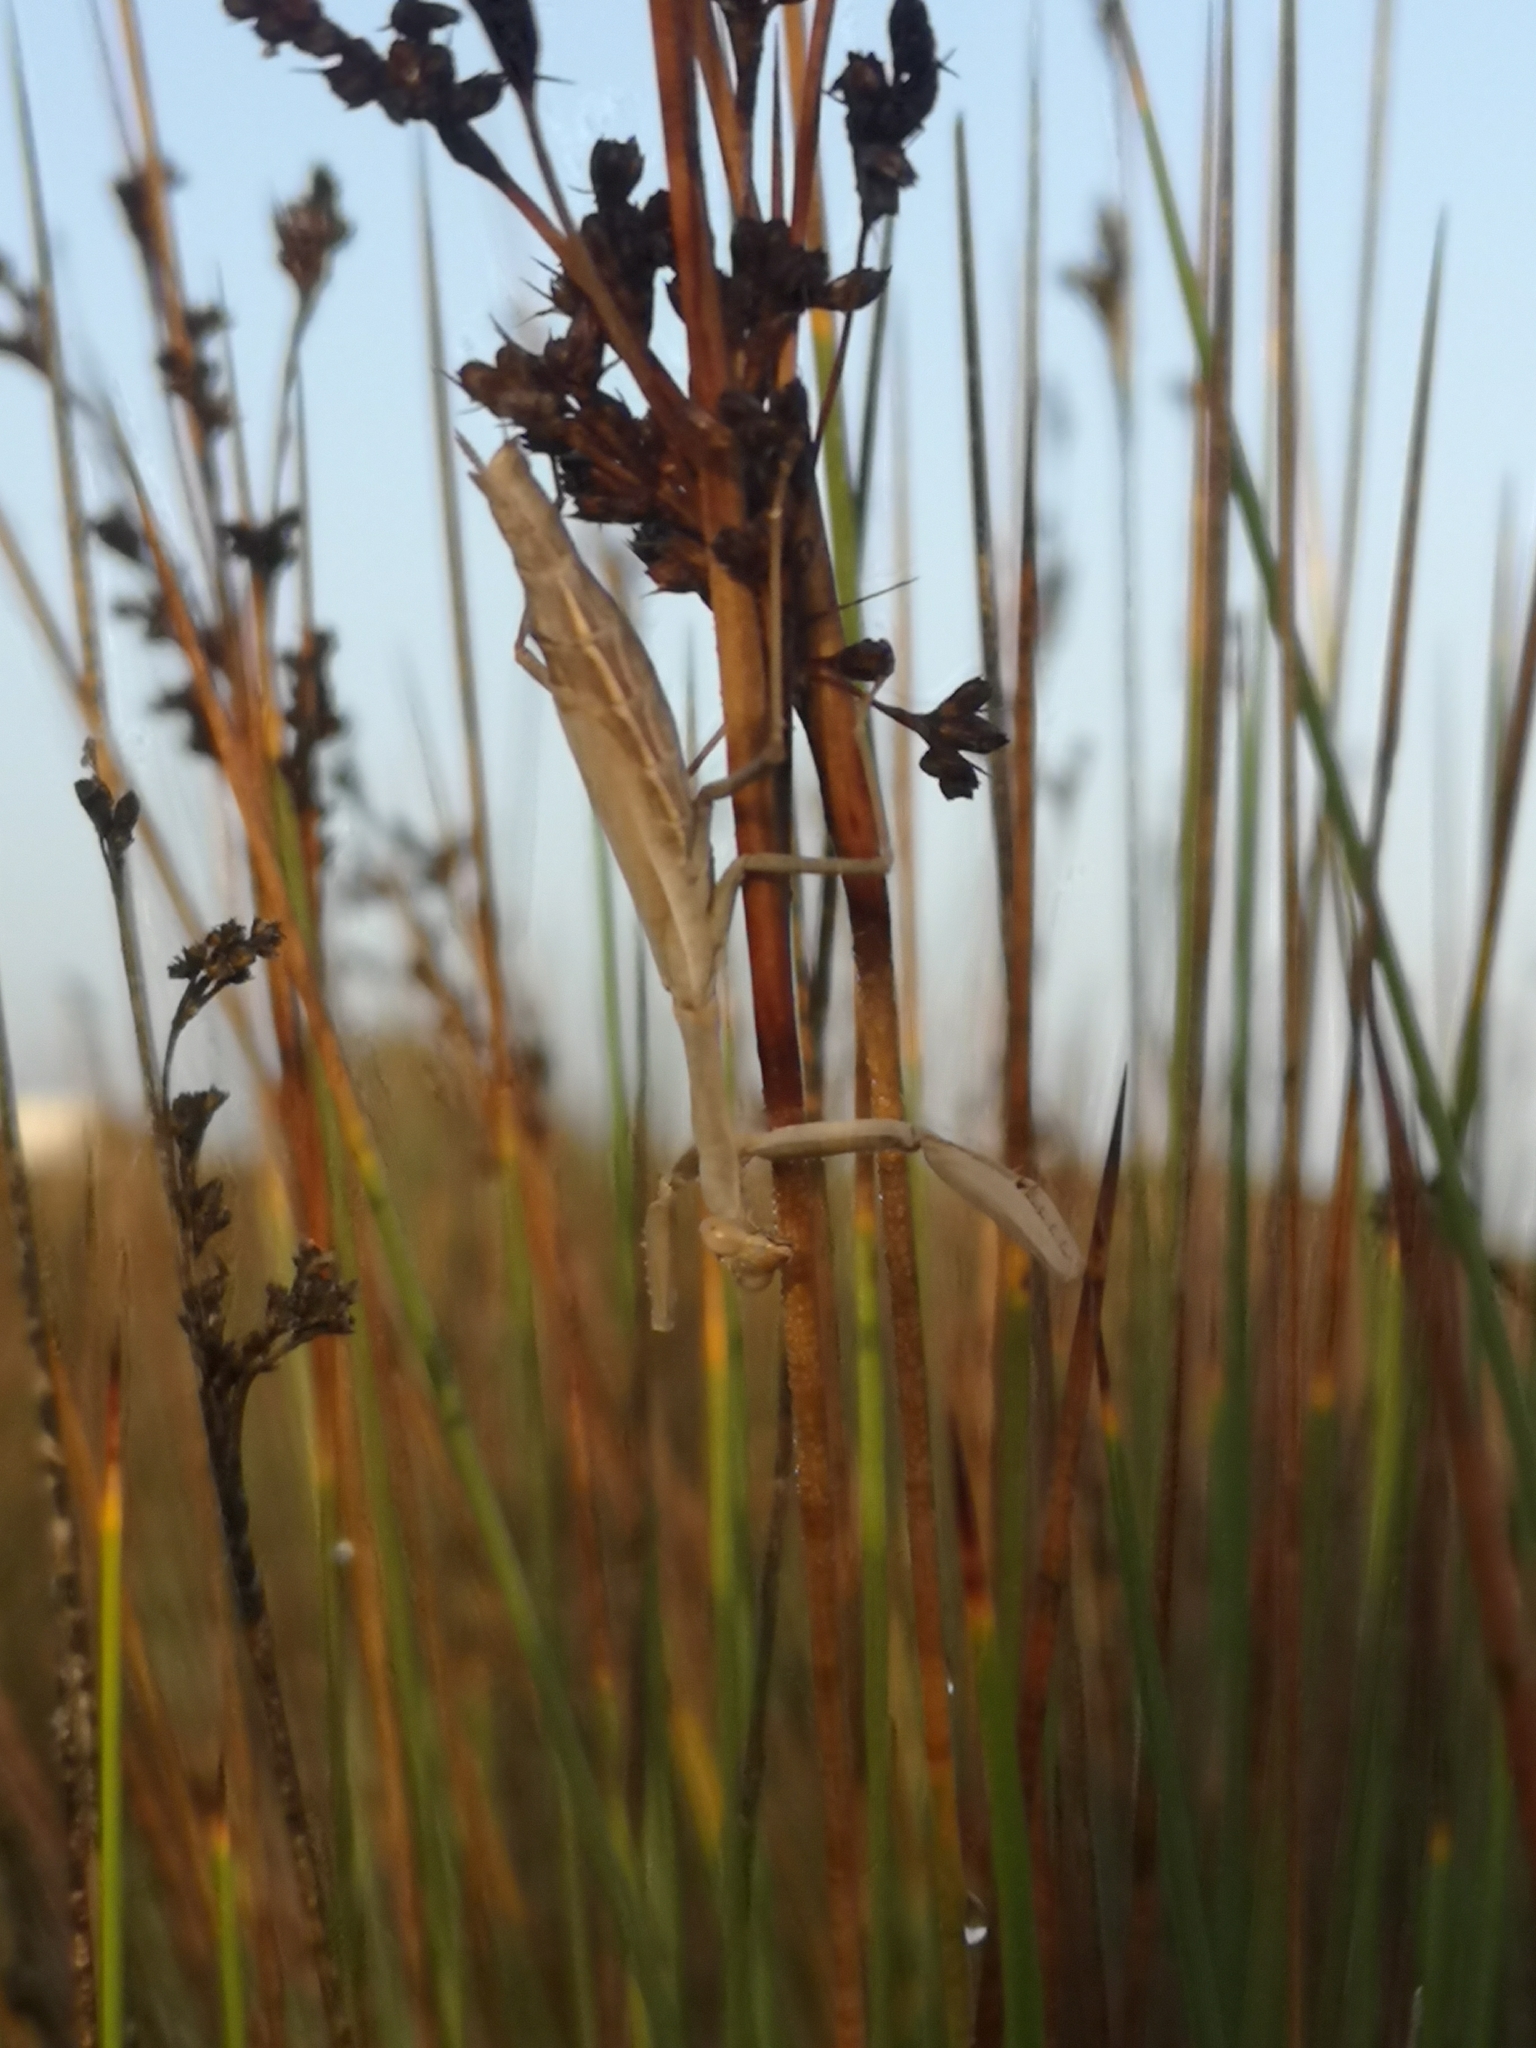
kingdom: Animalia
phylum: Arthropoda
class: Insecta
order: Mantodea
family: Eremiaphilidae
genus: Iris
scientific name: Iris oratoria
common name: Mediterranean mantis
